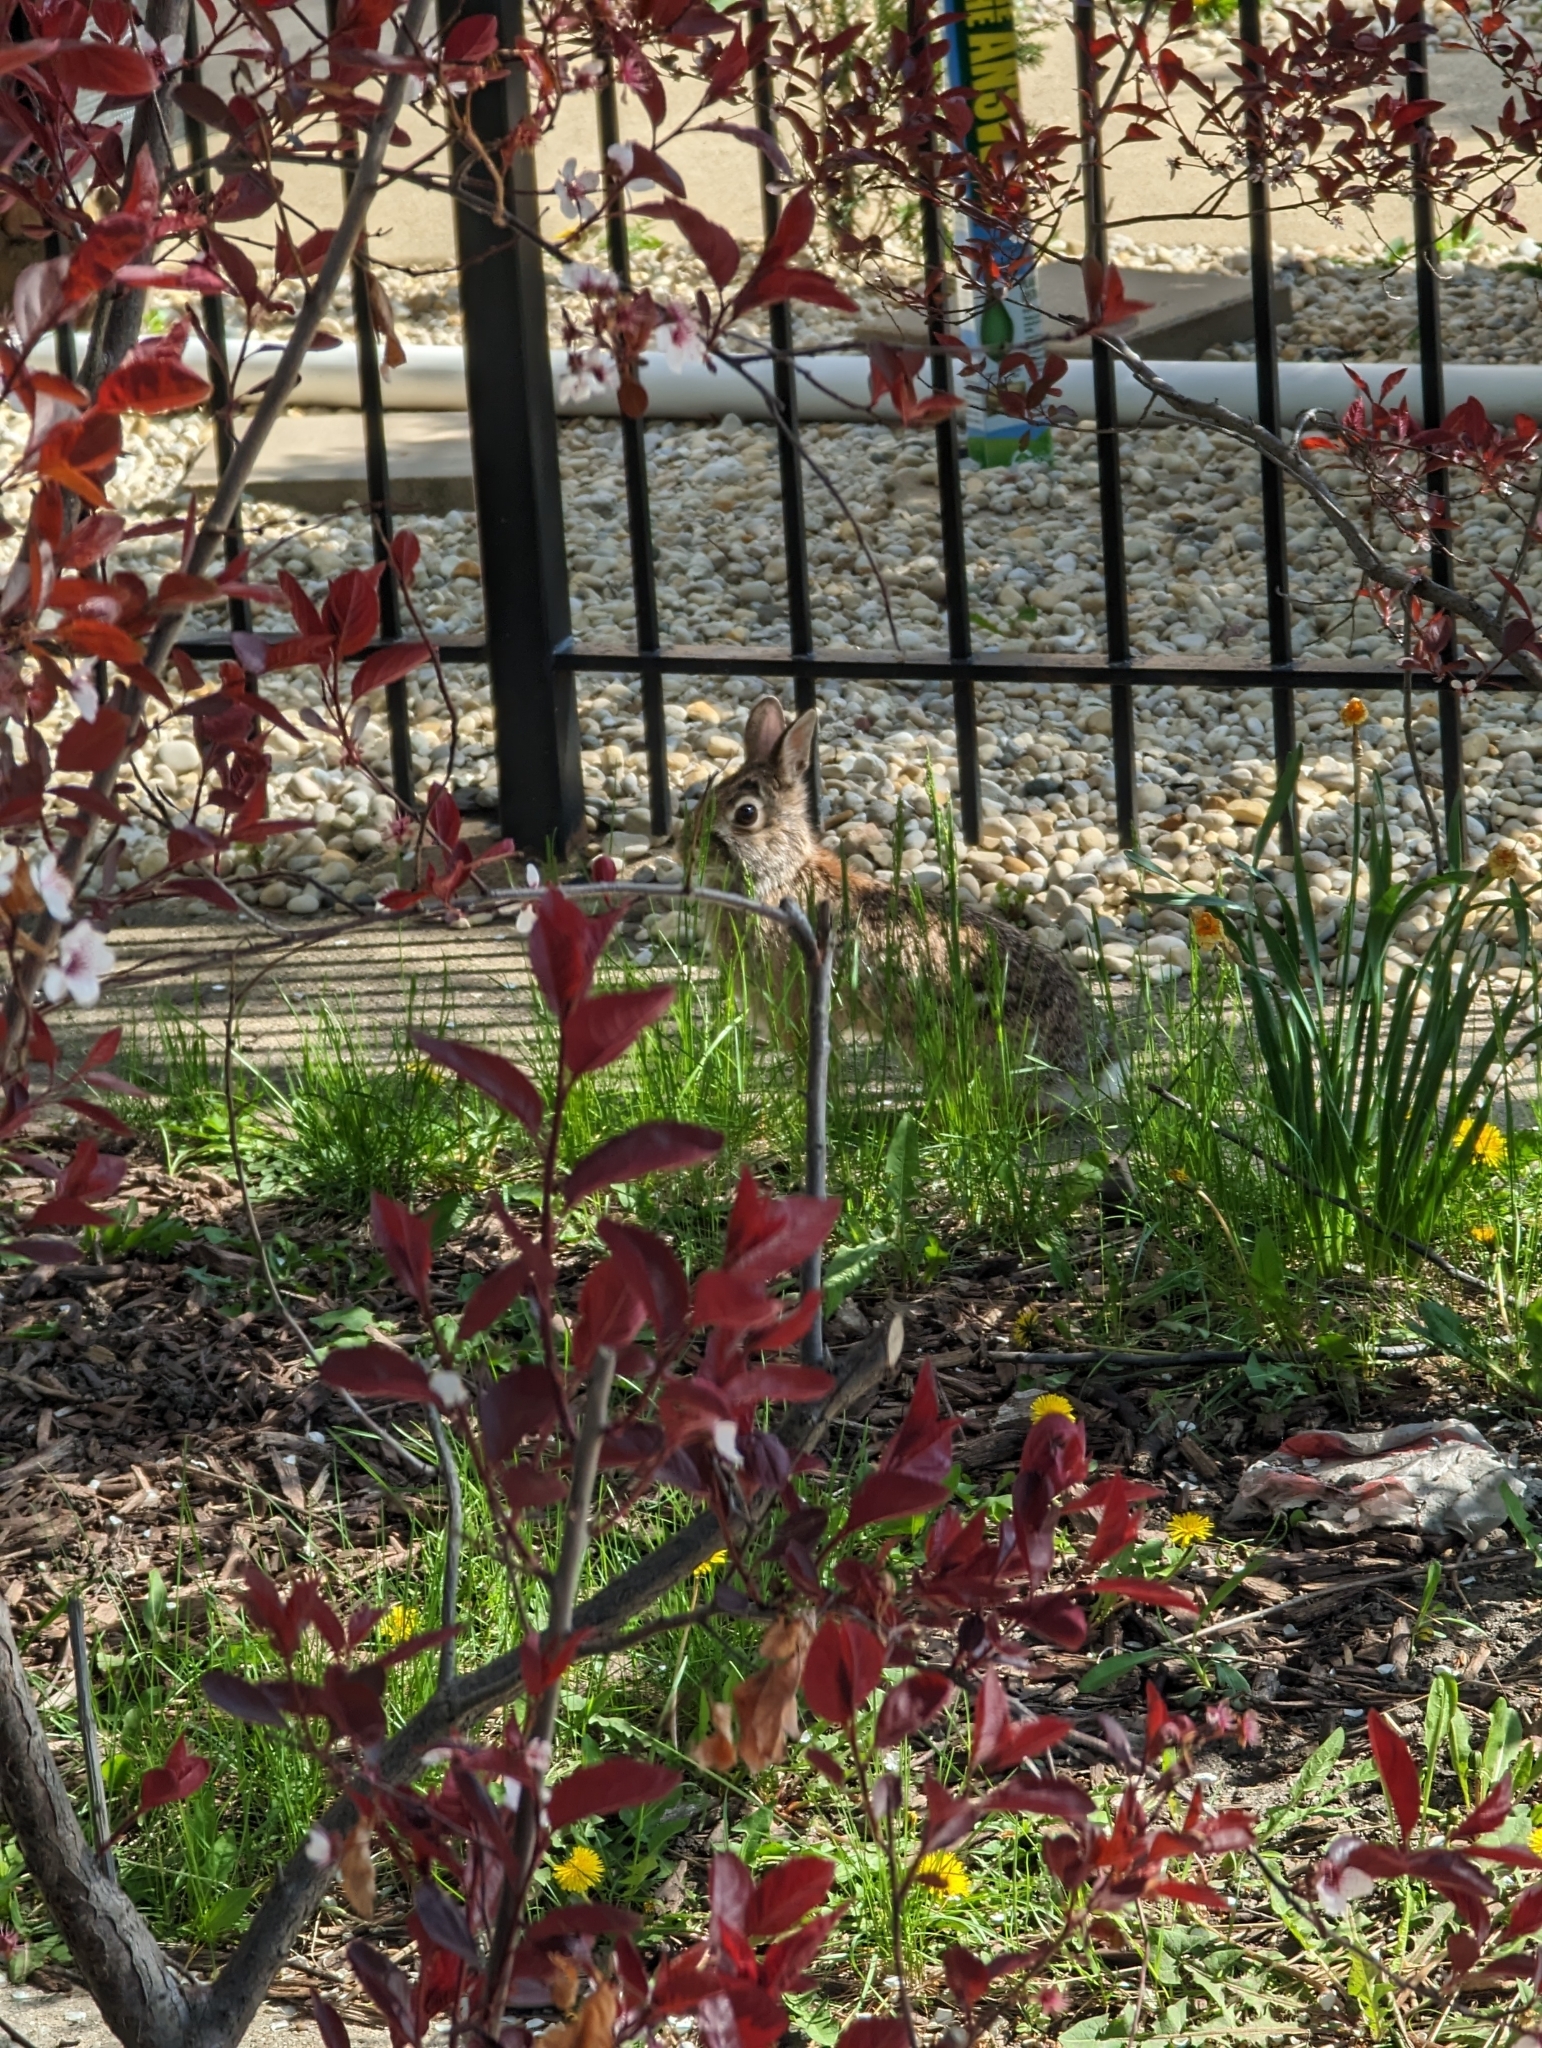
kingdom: Animalia
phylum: Chordata
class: Mammalia
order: Lagomorpha
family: Leporidae
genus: Sylvilagus
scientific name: Sylvilagus floridanus
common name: Eastern cottontail
